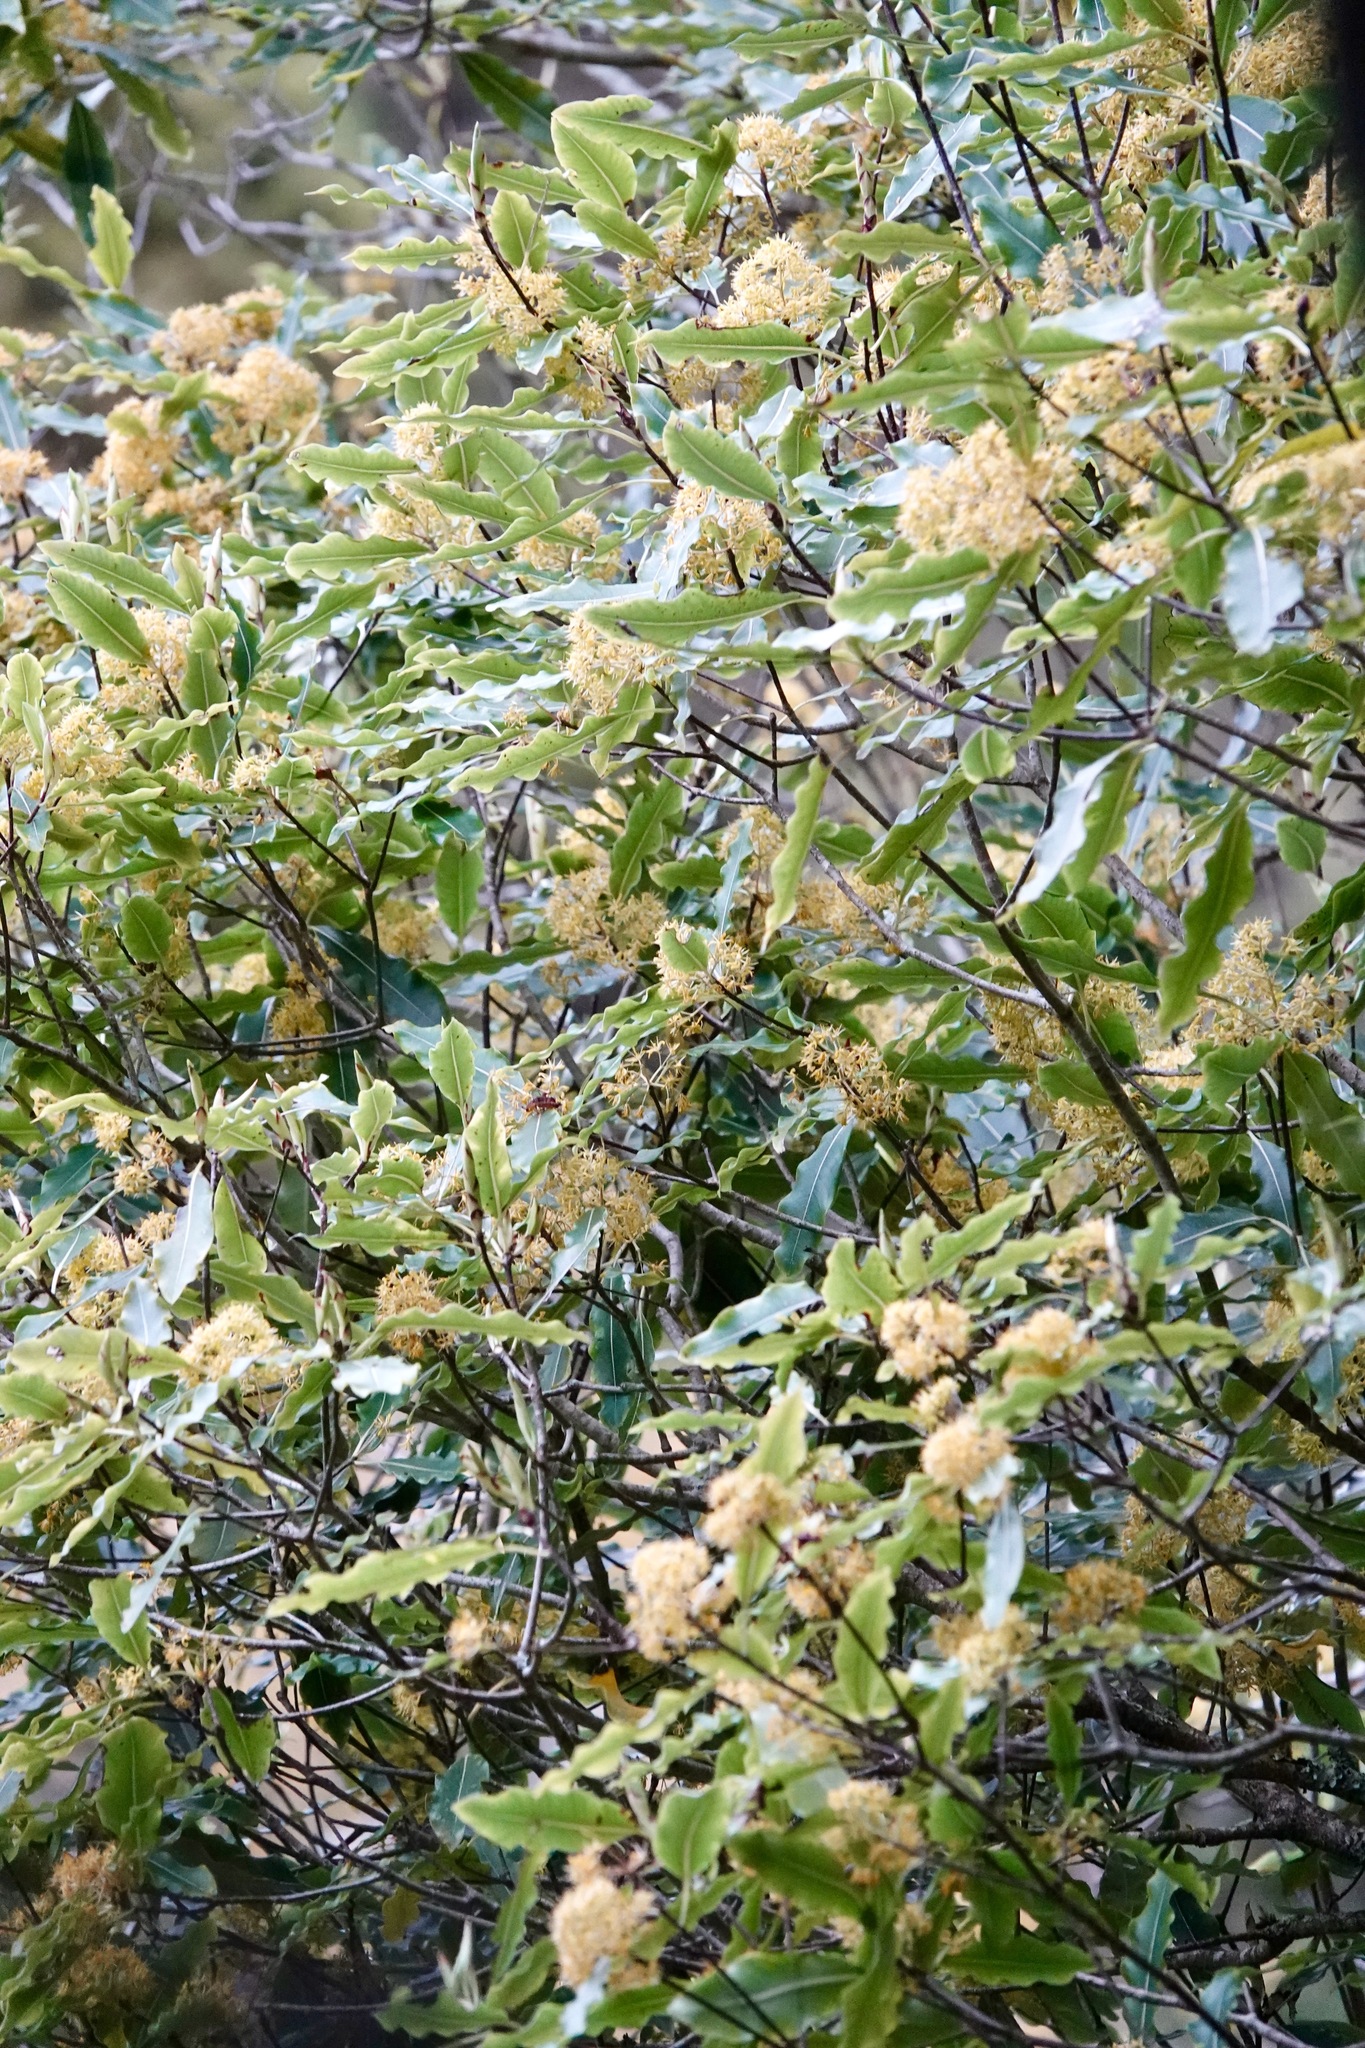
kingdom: Plantae
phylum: Tracheophyta
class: Magnoliopsida
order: Apiales
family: Pittosporaceae
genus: Pittosporum
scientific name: Pittosporum eugenioides
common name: Lemonwood
